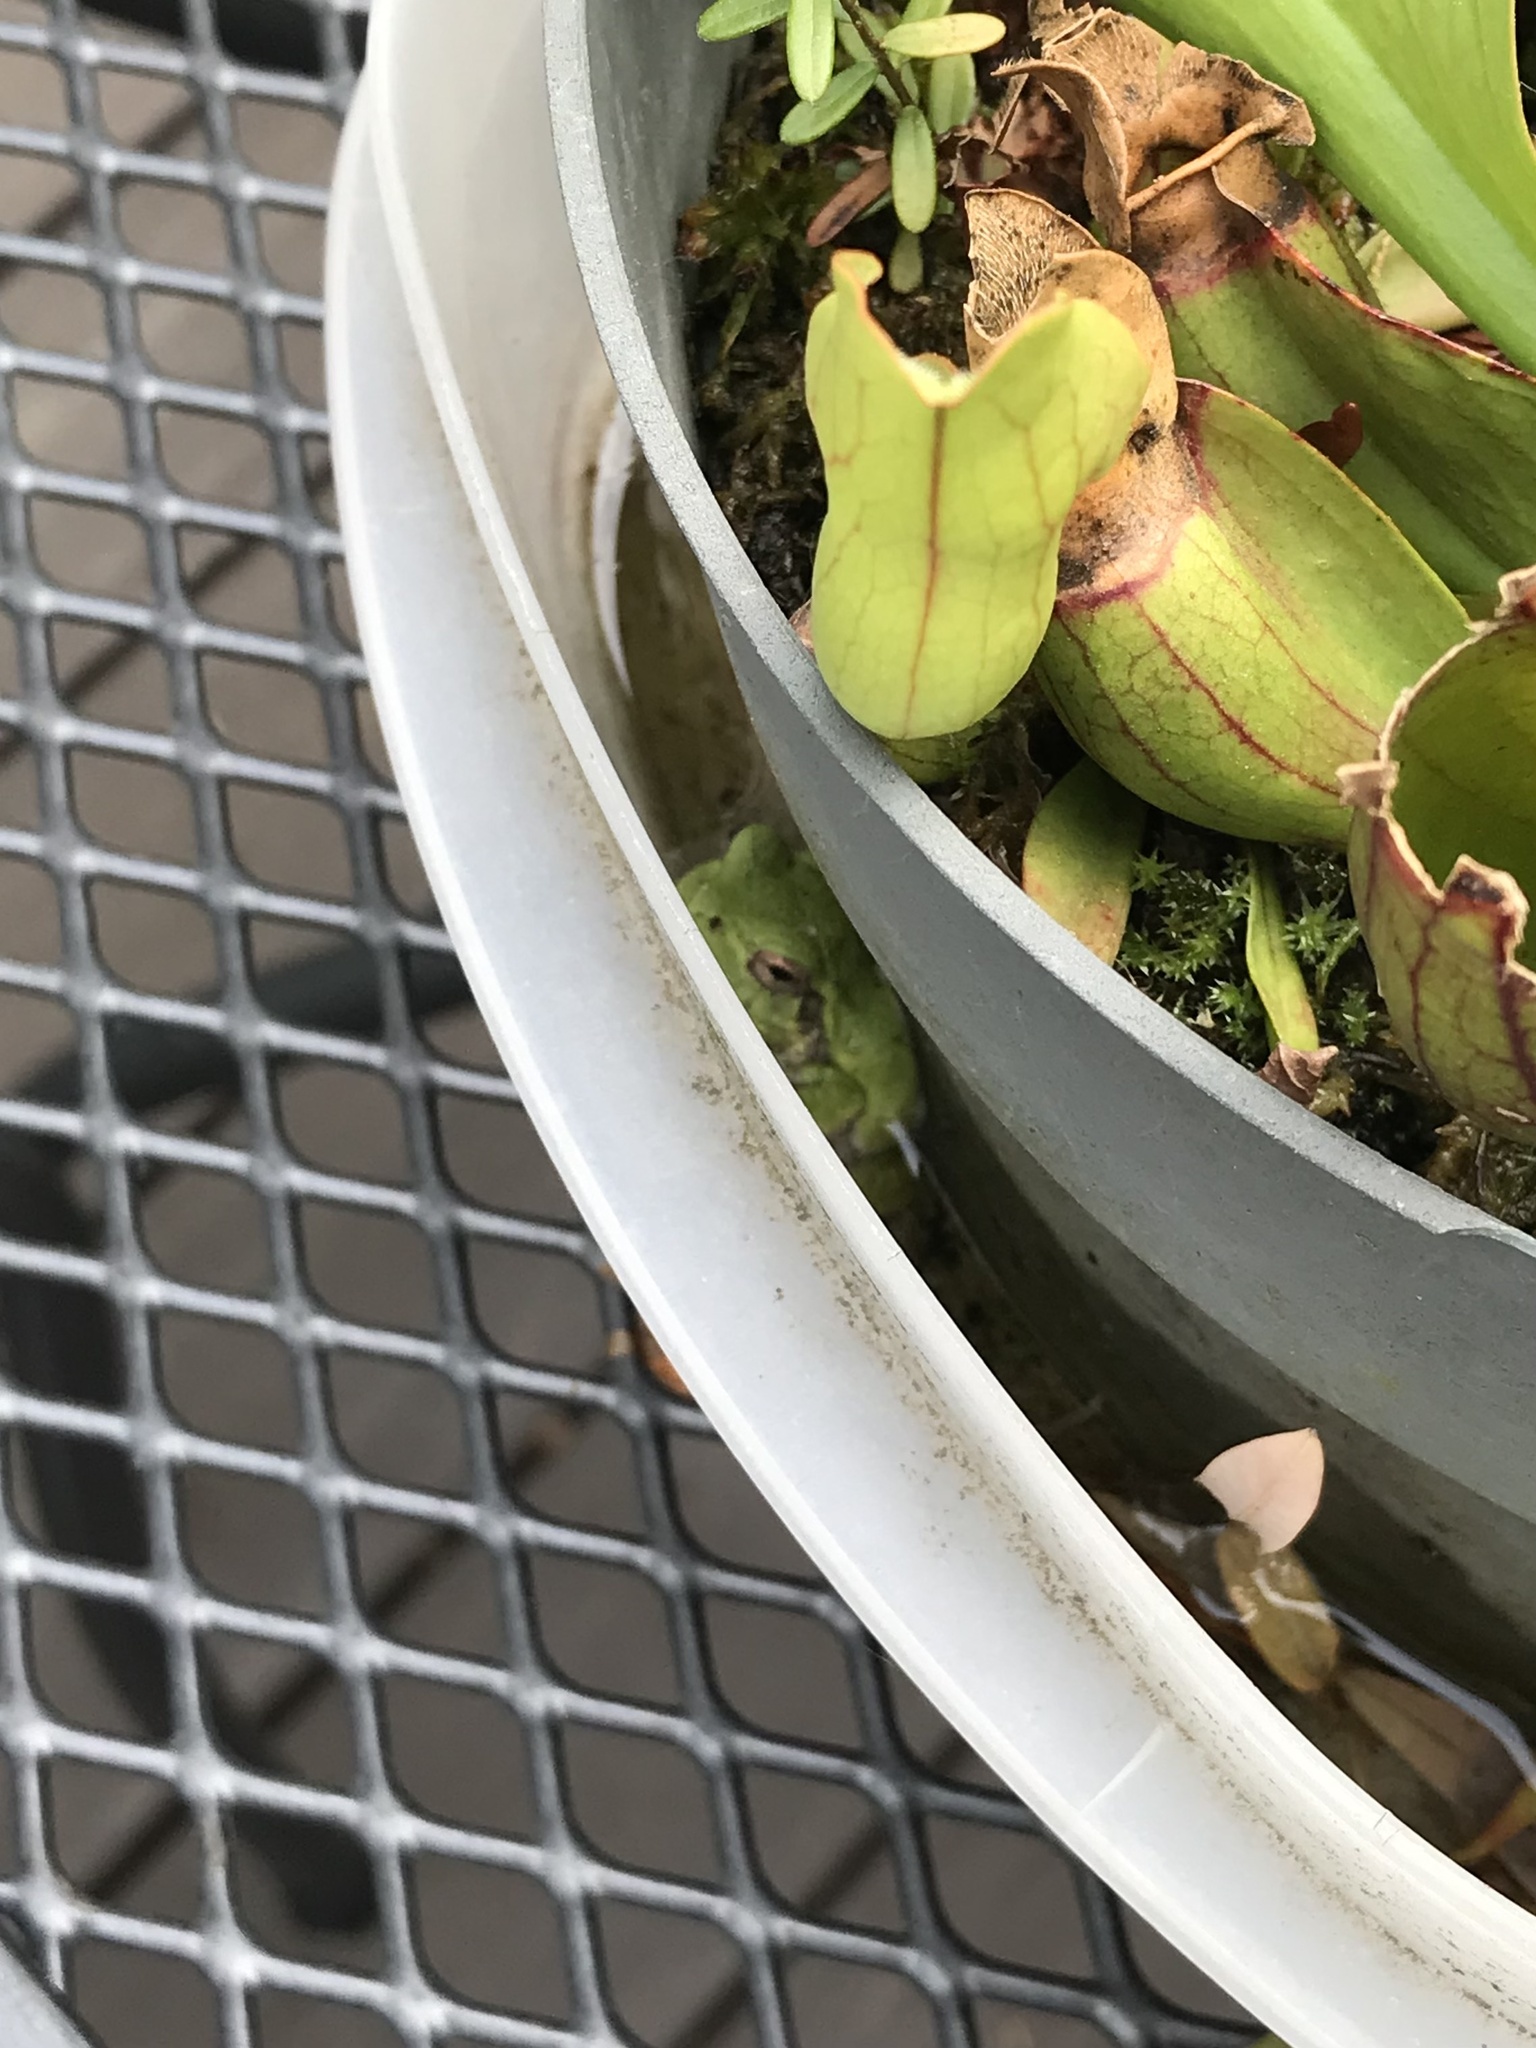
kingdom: Animalia
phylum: Chordata
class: Amphibia
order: Anura
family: Hylidae
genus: Hyla
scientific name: Hyla
